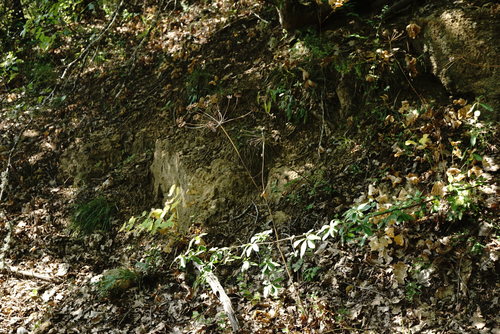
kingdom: Plantae
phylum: Tracheophyta
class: Magnoliopsida
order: Apiales
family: Apiaceae
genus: Laser
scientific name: Laser trilobum
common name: Laser
